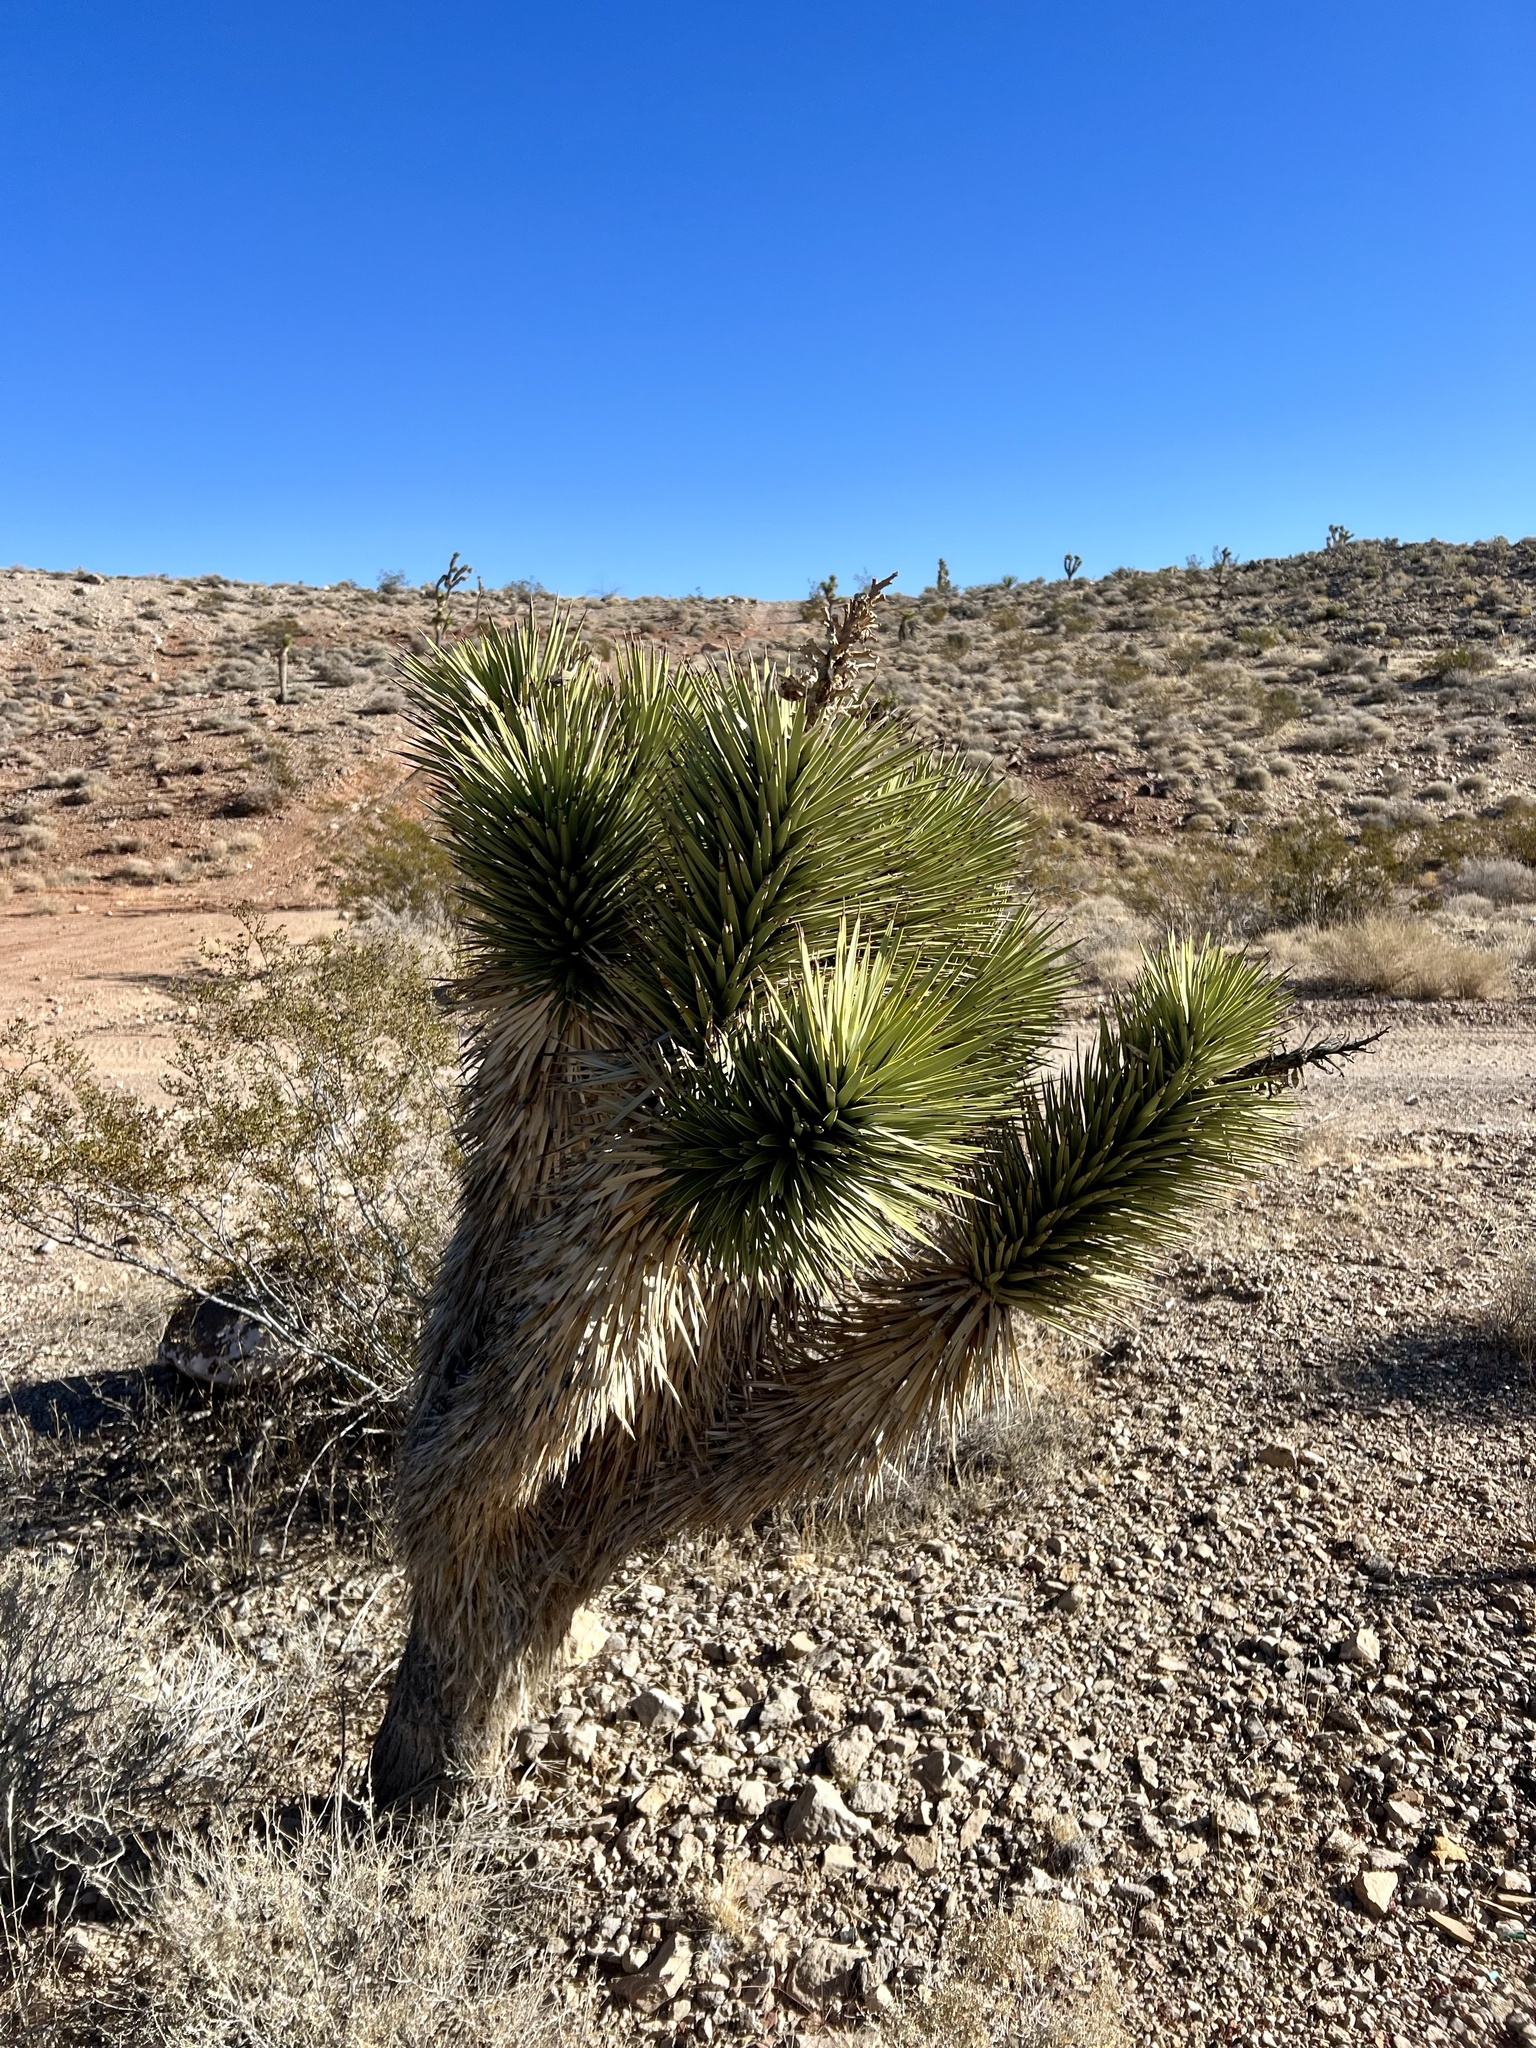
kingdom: Plantae
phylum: Tracheophyta
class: Liliopsida
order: Asparagales
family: Asparagaceae
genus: Yucca
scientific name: Yucca brevifolia
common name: Joshua tree
